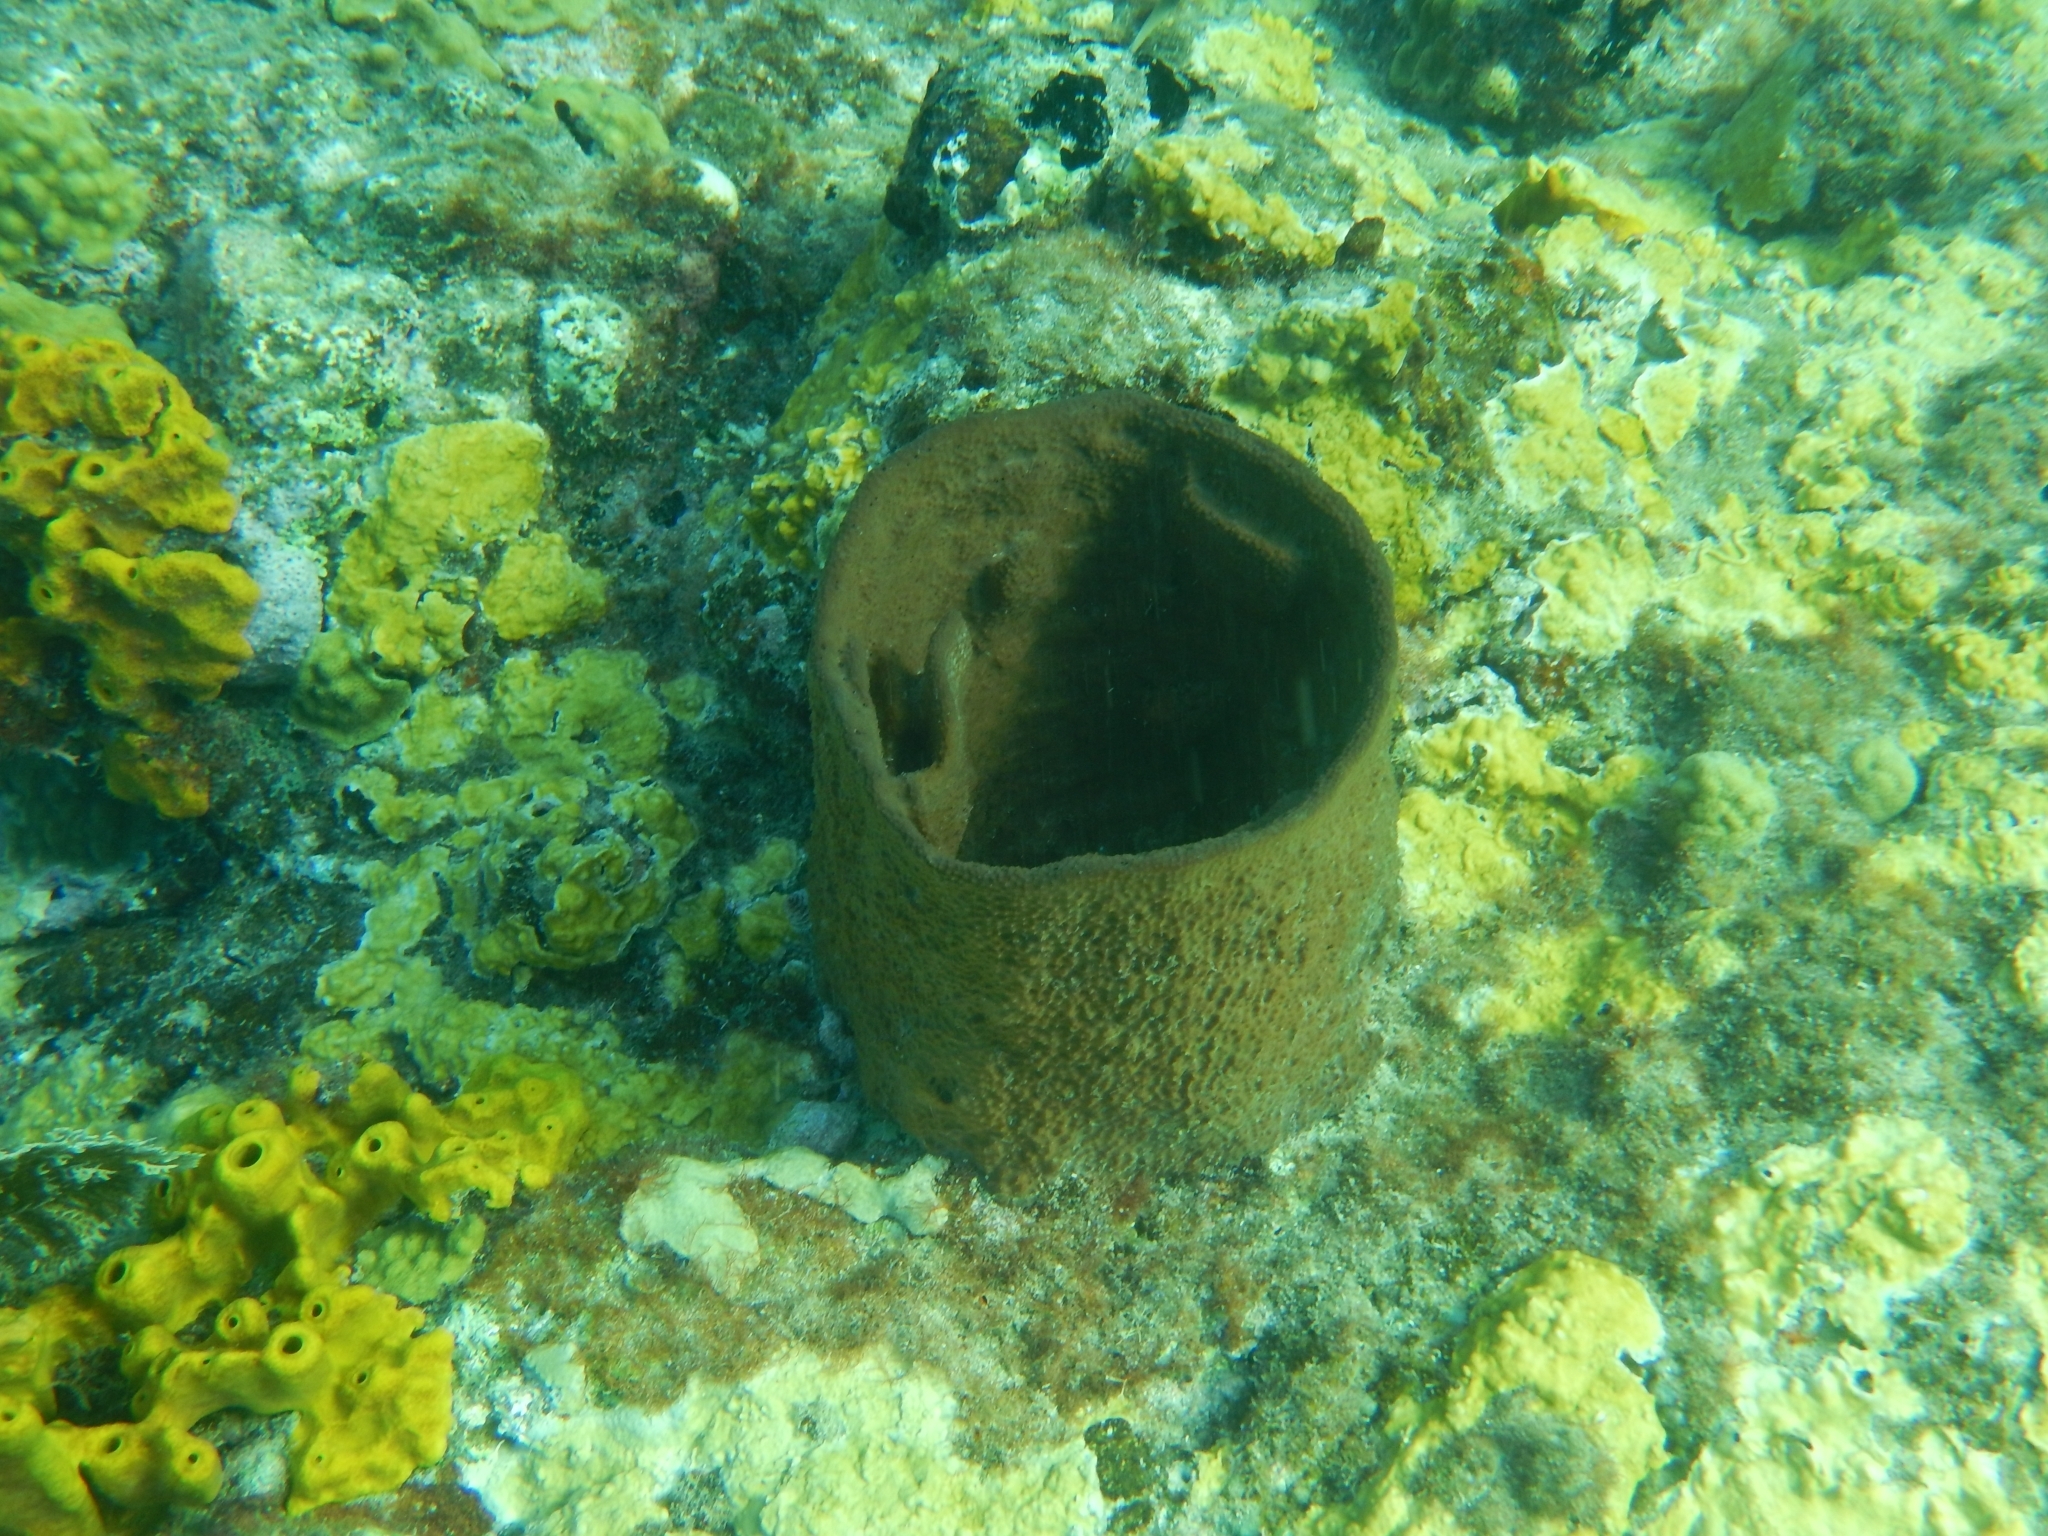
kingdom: Animalia
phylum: Porifera
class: Demospongiae
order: Dictyoceratida
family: Irciniidae
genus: Ircinia
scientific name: Ircinia campana
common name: Vase sponge
